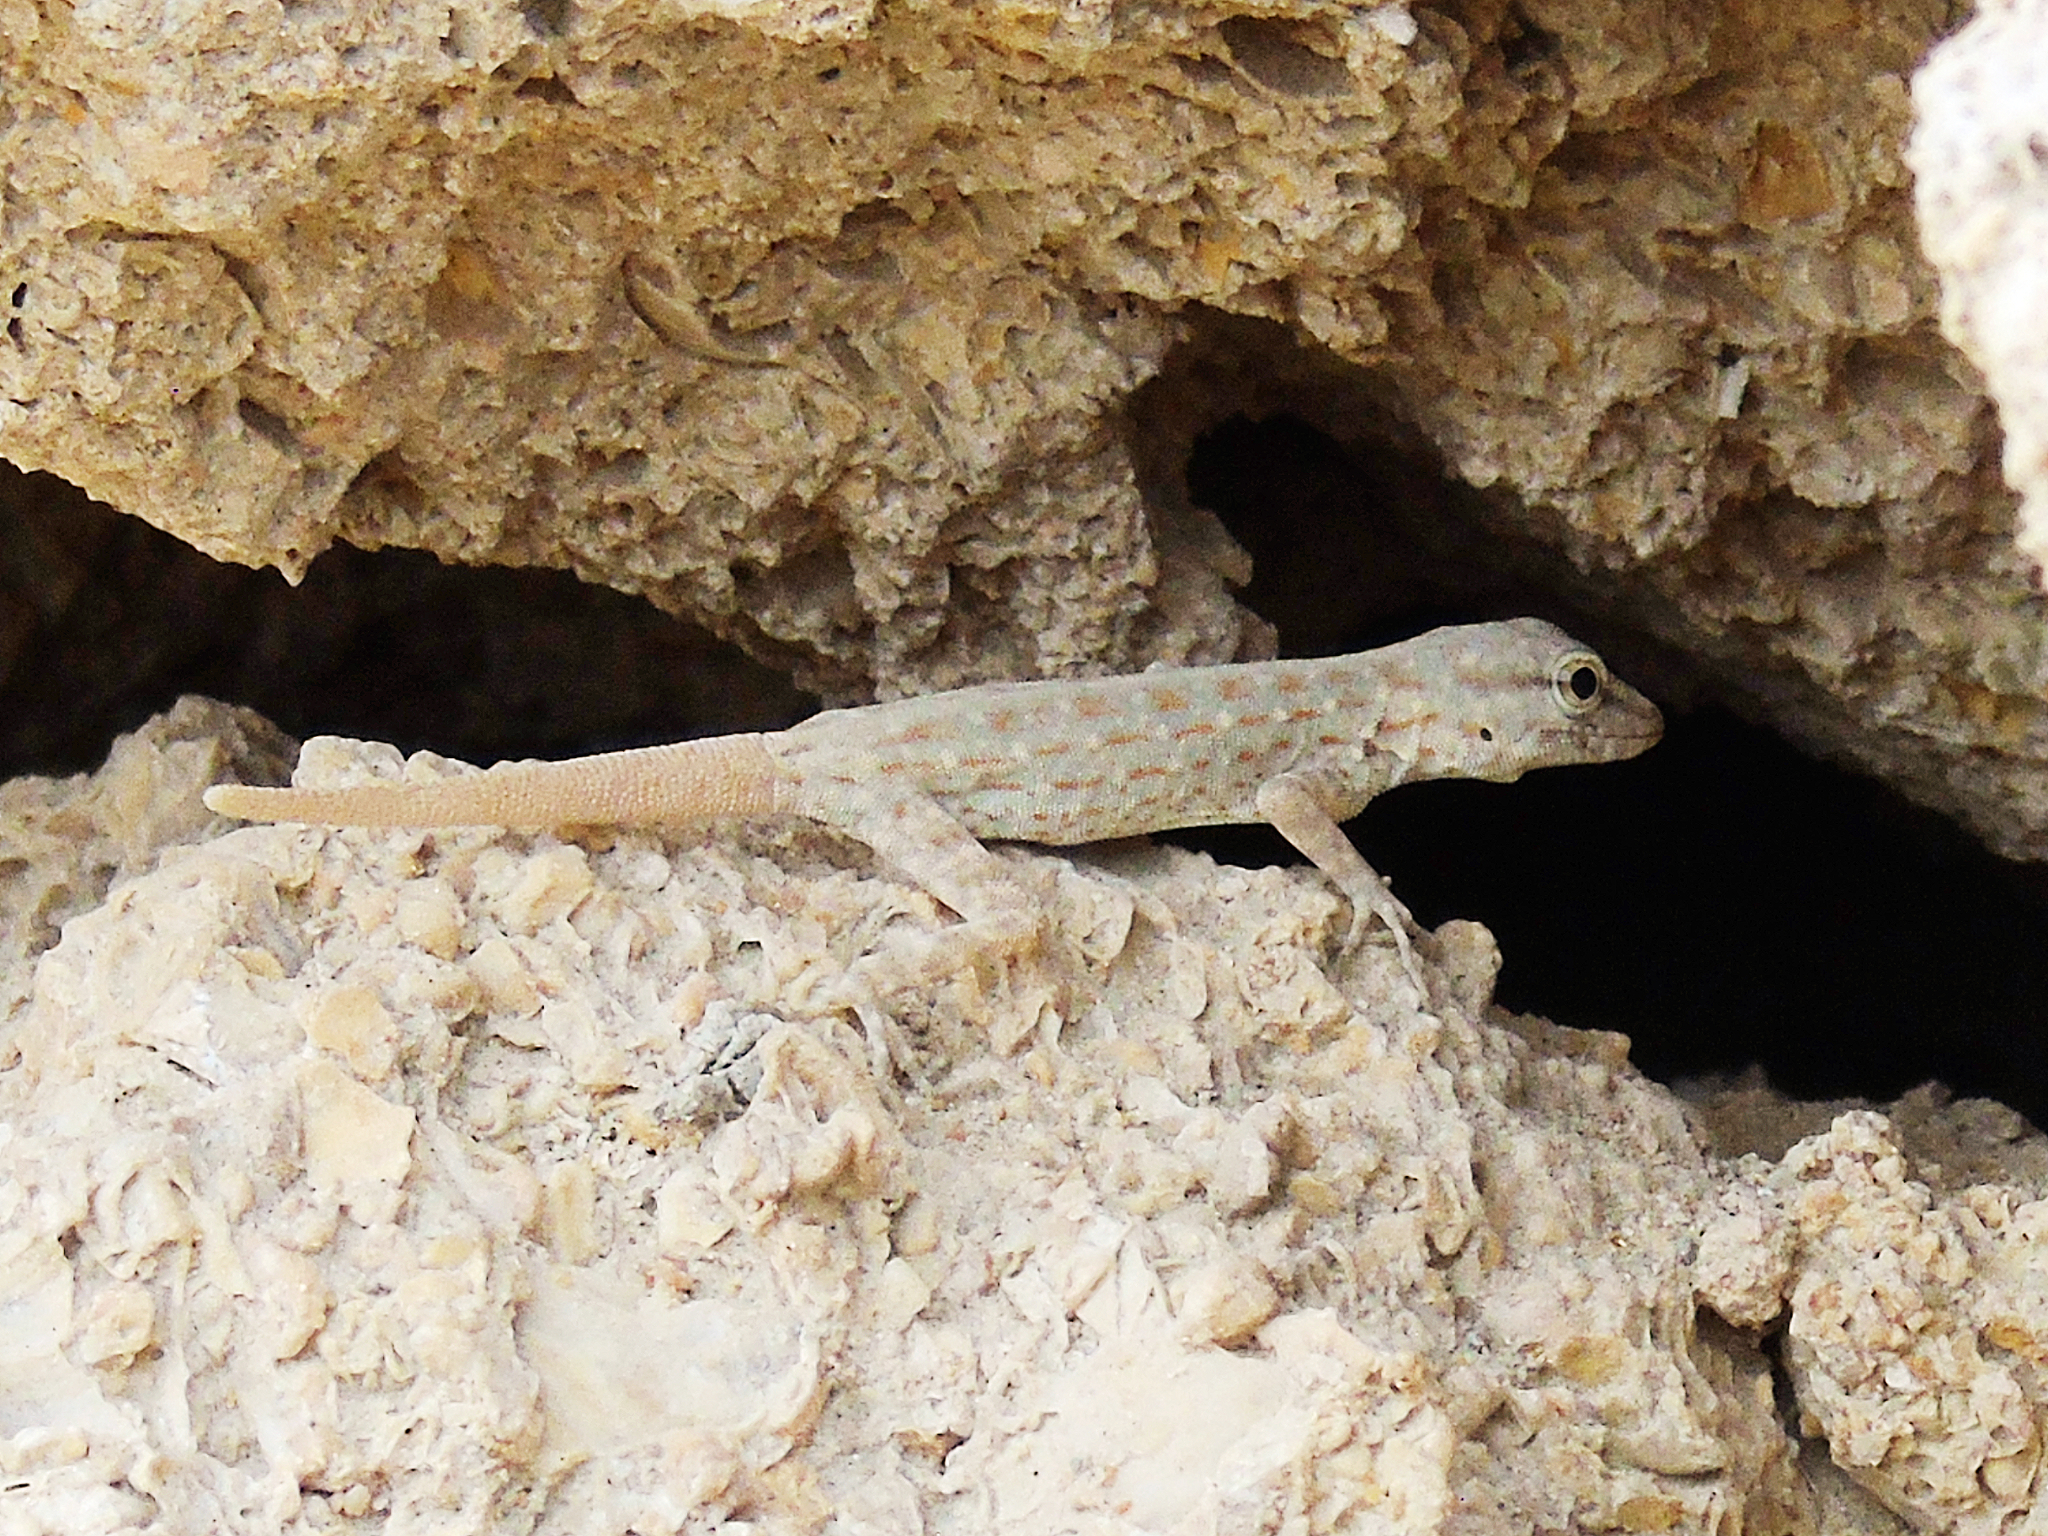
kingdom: Animalia
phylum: Chordata
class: Squamata
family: Sphaerodactylidae
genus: Pristurus
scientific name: Pristurus rupestris
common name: Blanford’s semaphore gecko
